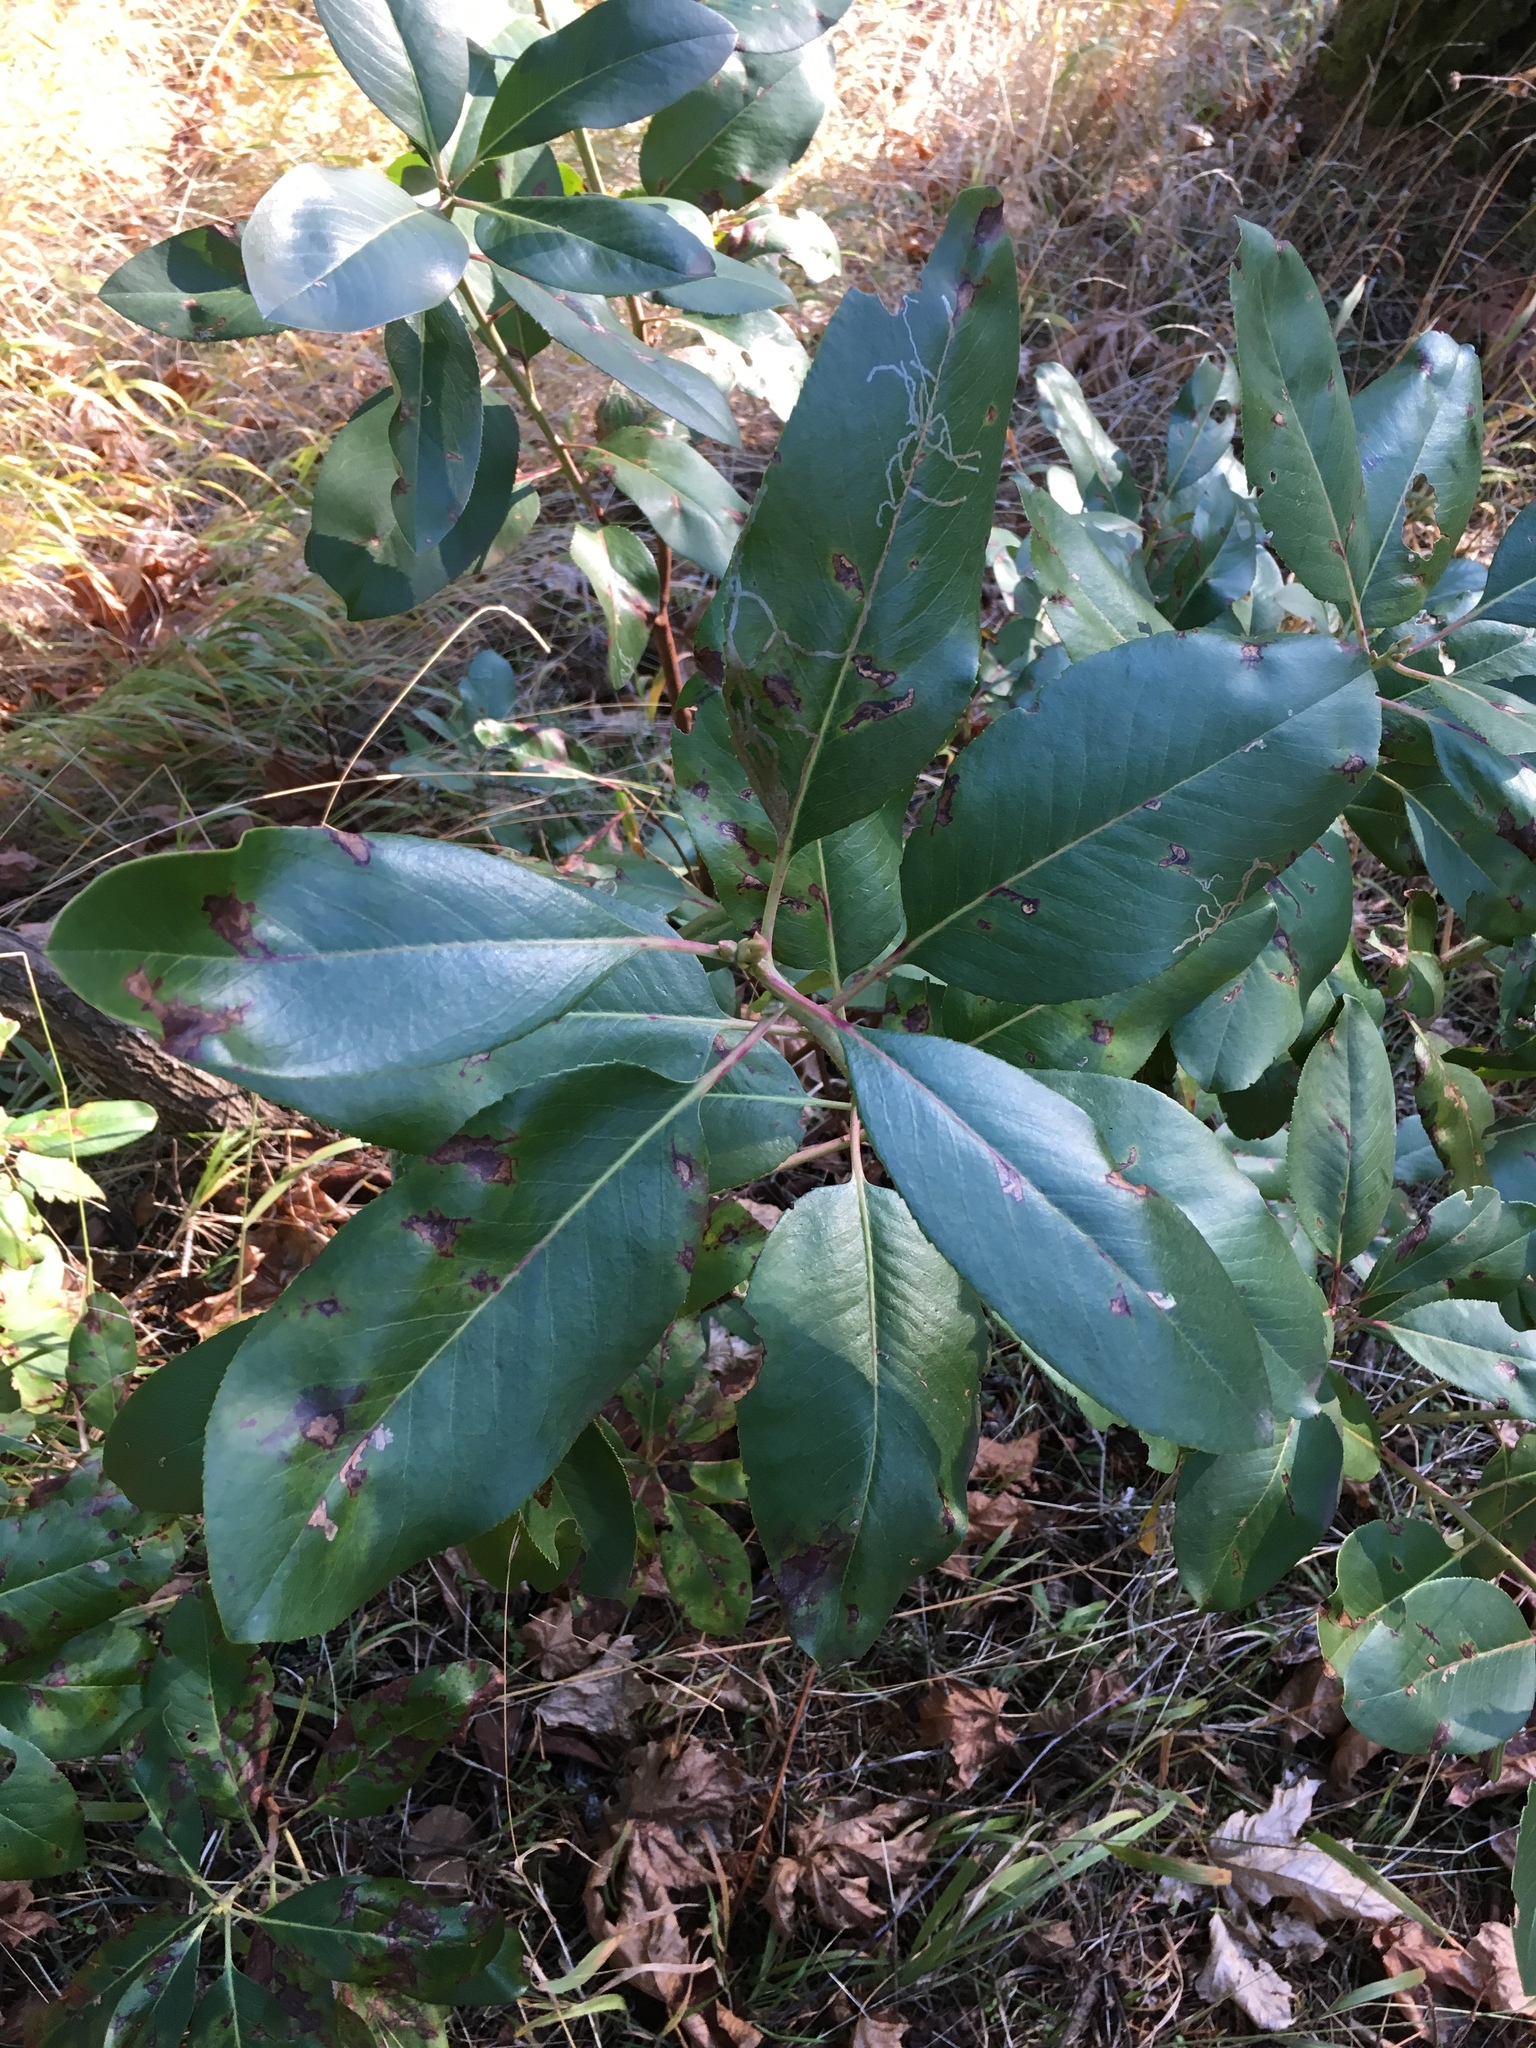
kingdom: Plantae
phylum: Tracheophyta
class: Magnoliopsida
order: Ericales
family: Ericaceae
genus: Arbutus
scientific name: Arbutus menziesii
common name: Pacific madrone
